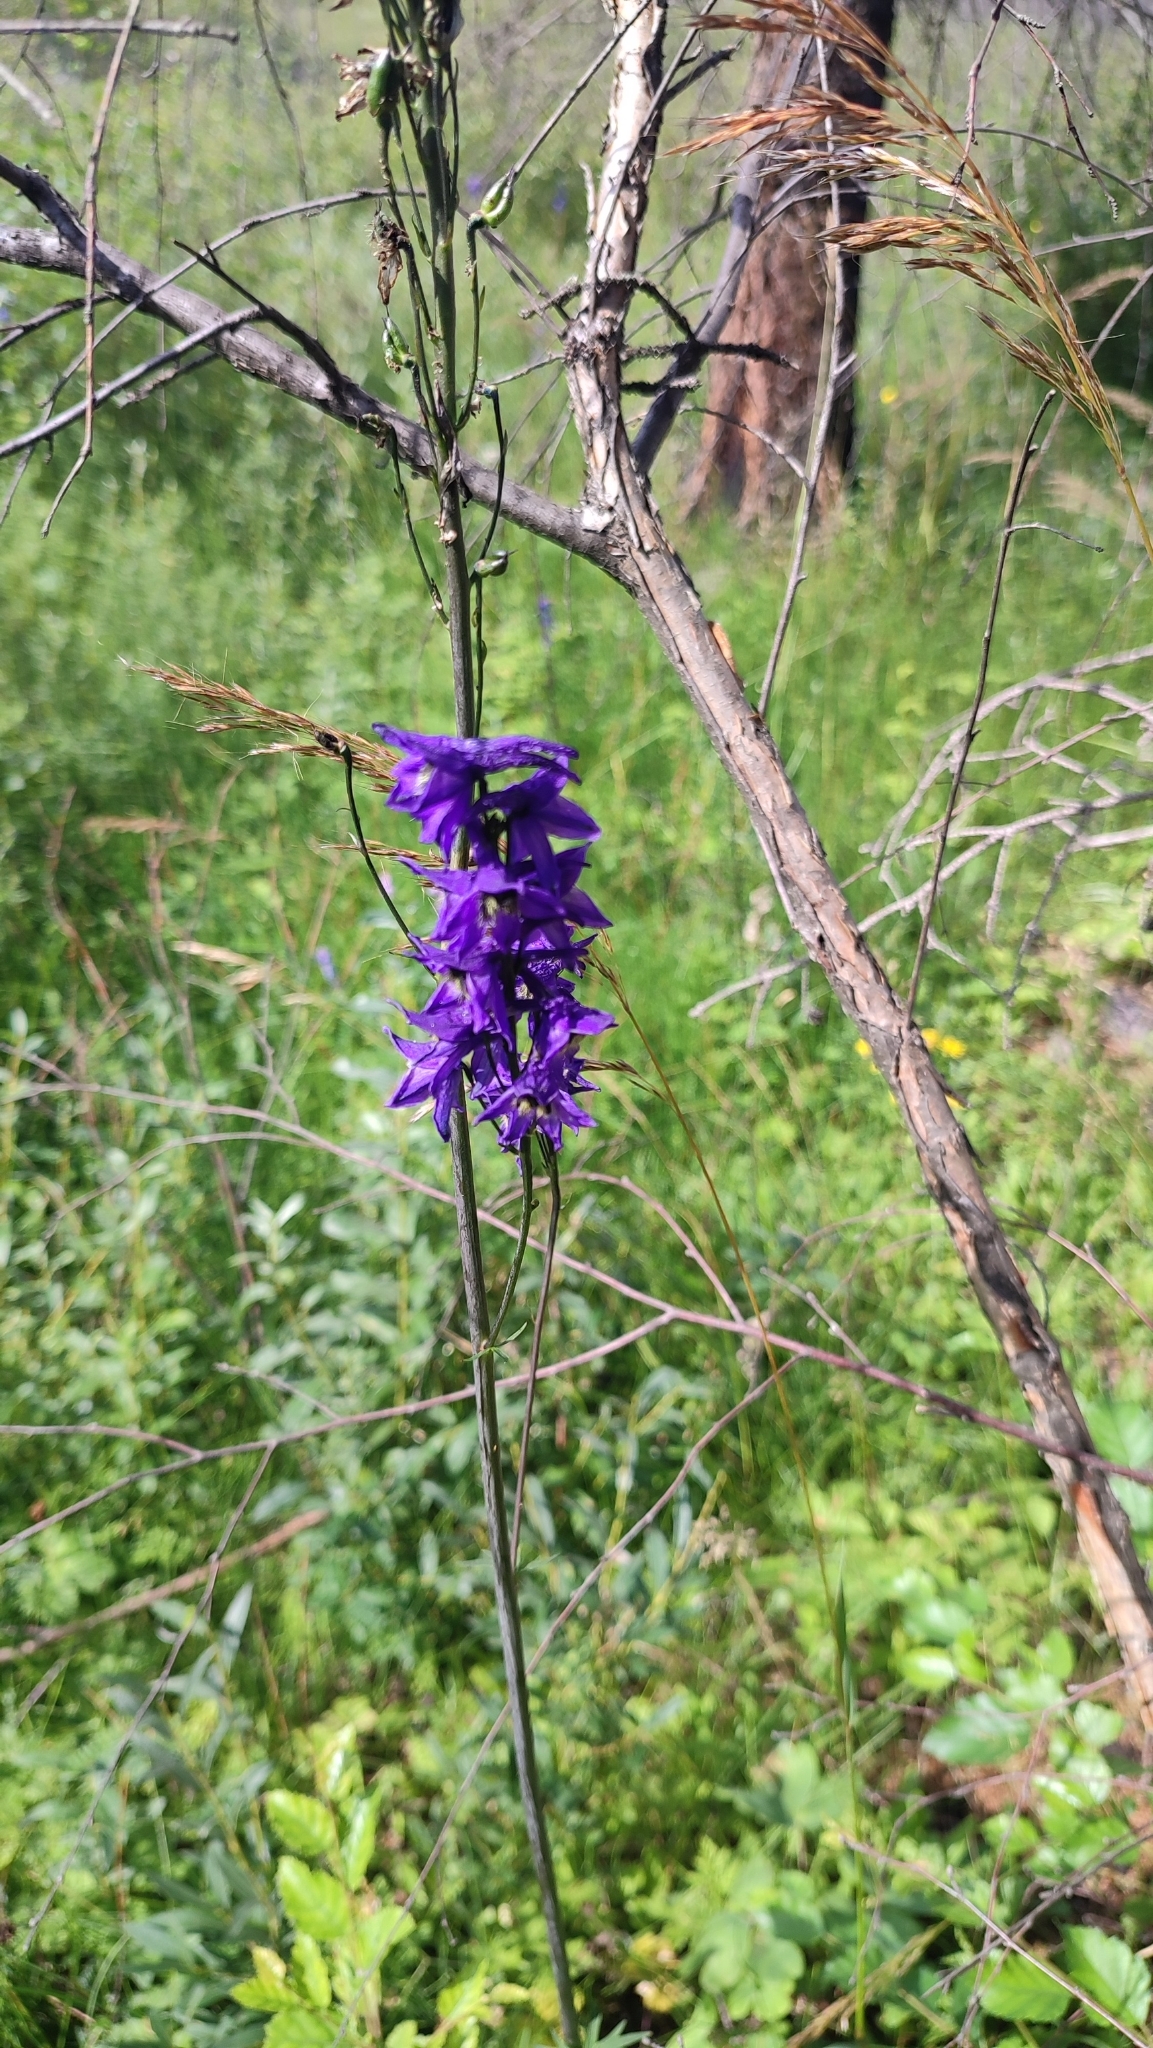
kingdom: Plantae
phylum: Tracheophyta
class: Magnoliopsida
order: Ranunculales
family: Ranunculaceae
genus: Delphinium
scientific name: Delphinium crassifolium
